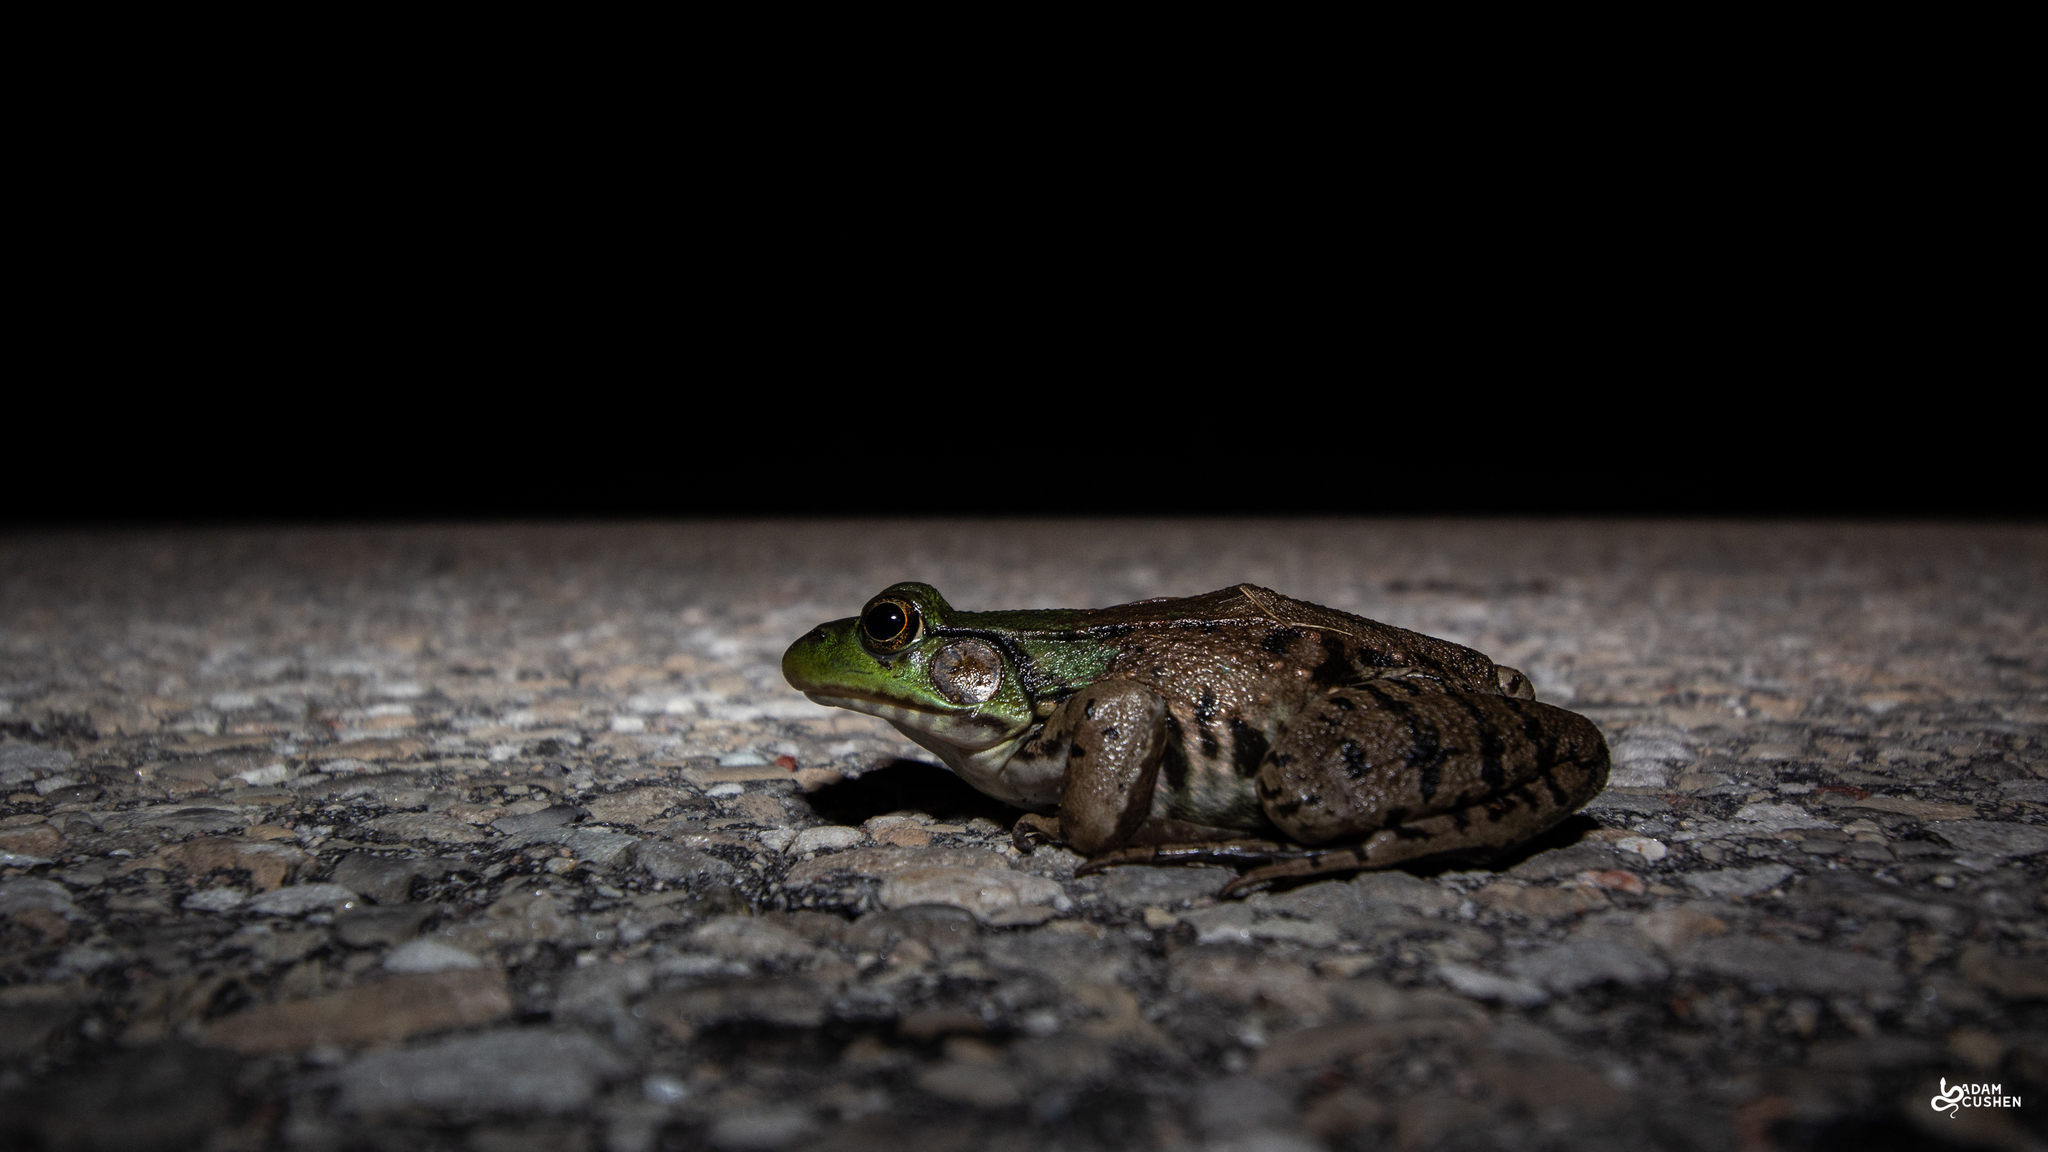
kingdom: Animalia
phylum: Chordata
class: Amphibia
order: Anura
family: Ranidae
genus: Lithobates
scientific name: Lithobates clamitans
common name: Green frog
